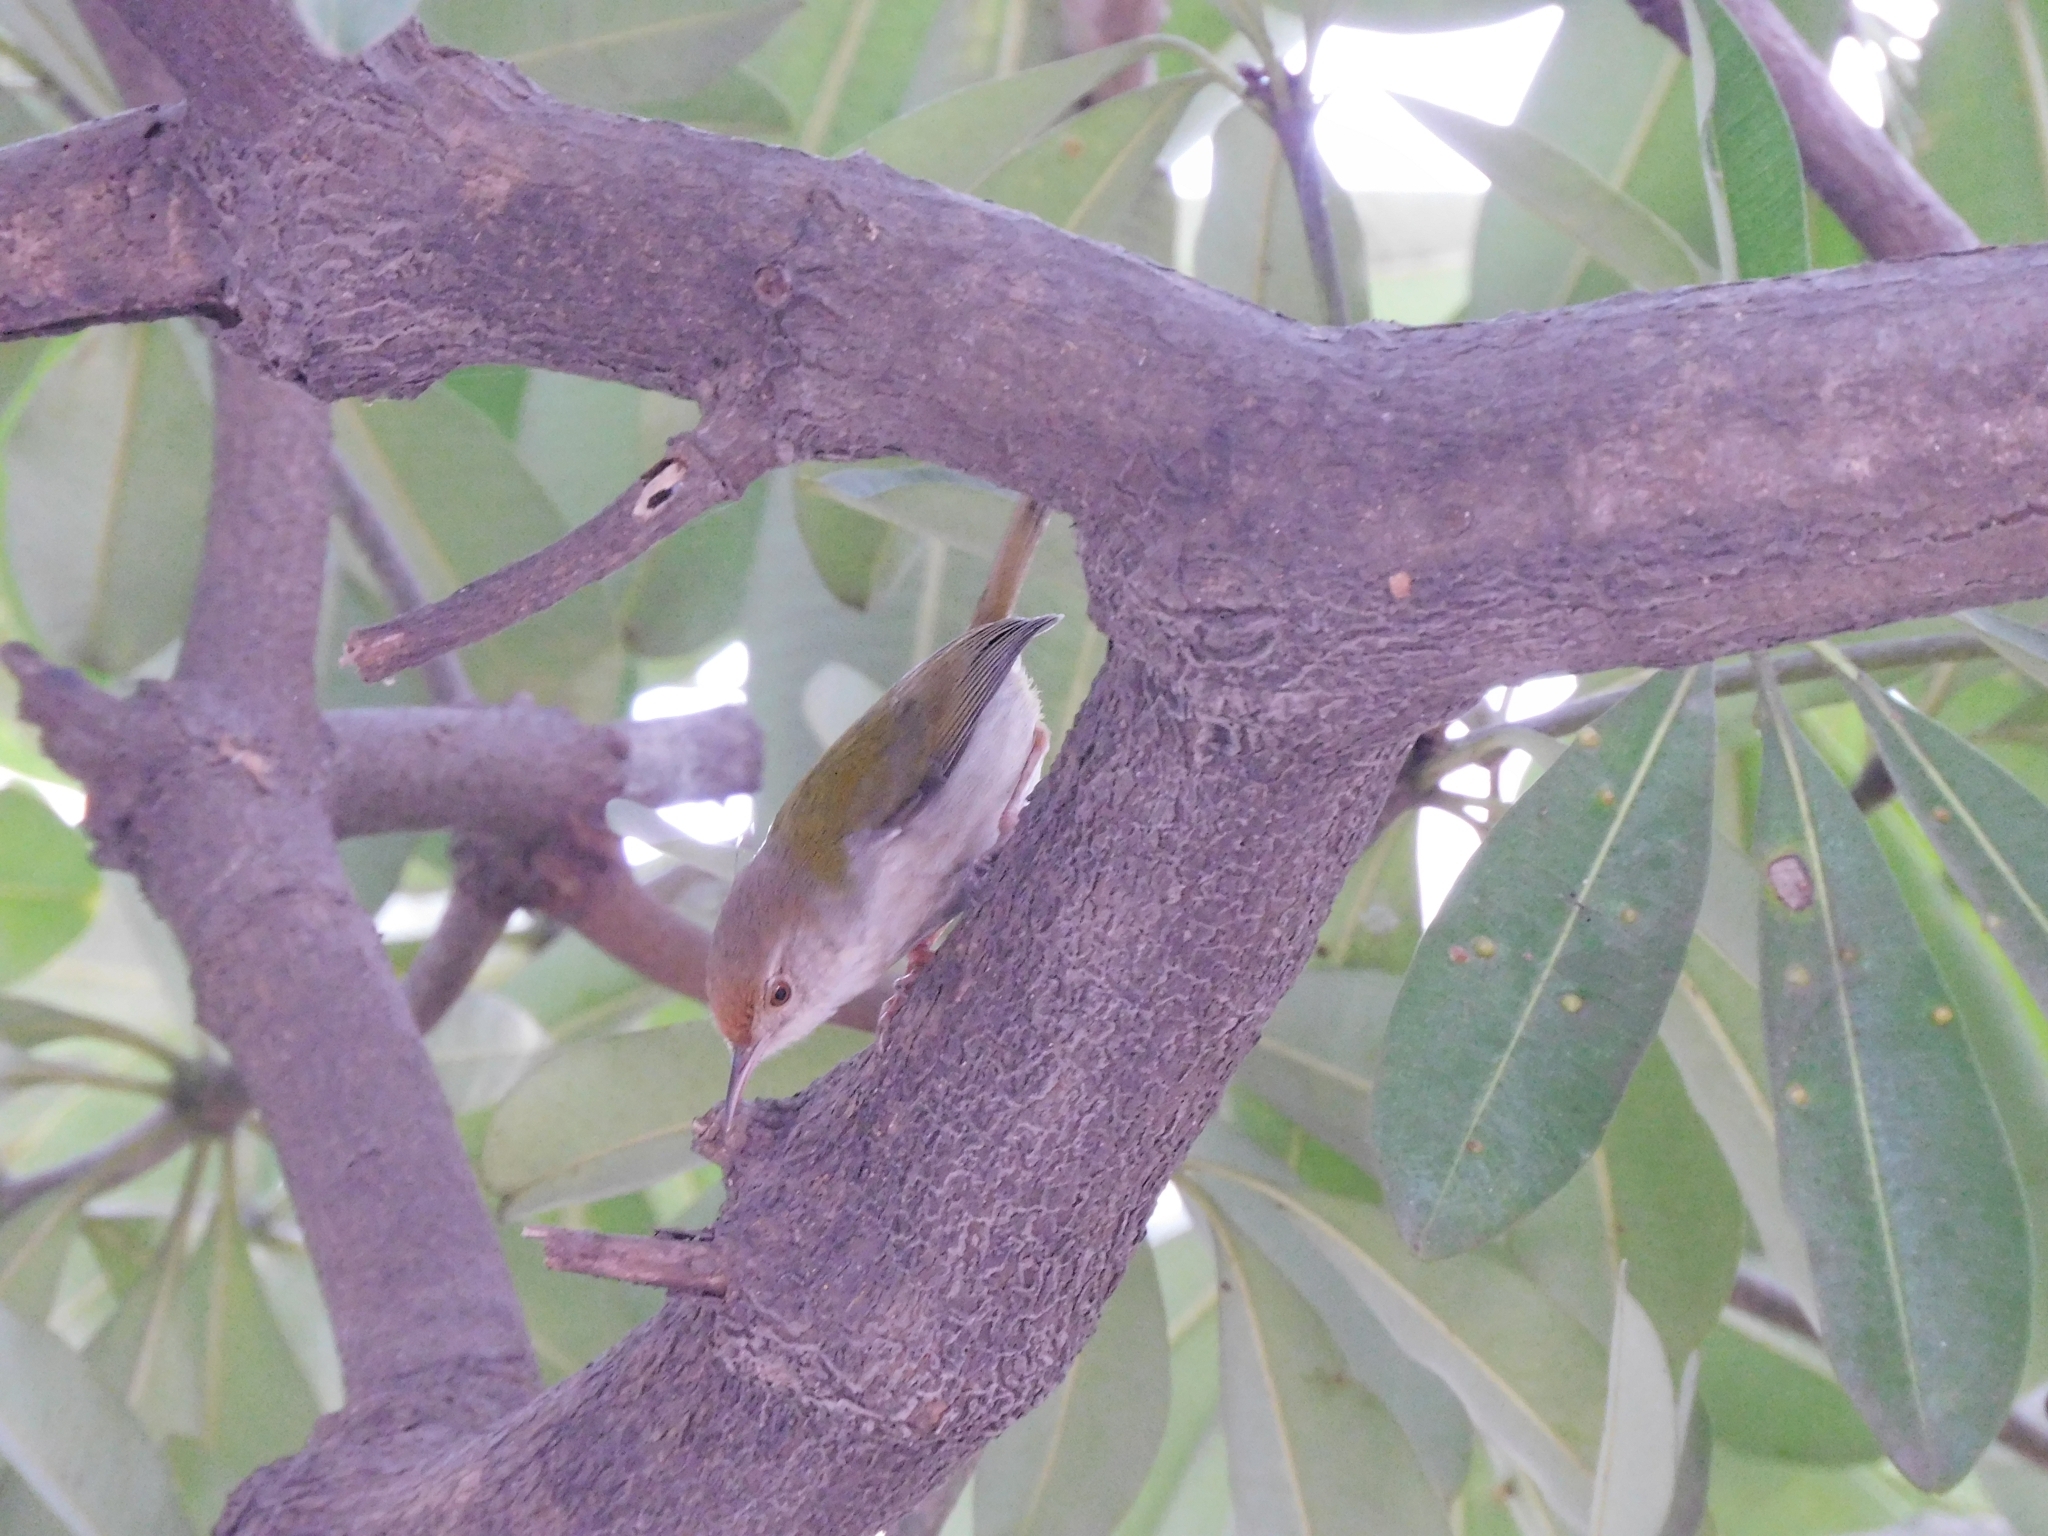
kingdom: Animalia
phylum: Chordata
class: Aves
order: Passeriformes
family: Cisticolidae
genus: Orthotomus
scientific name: Orthotomus sutorius
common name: Common tailorbird
